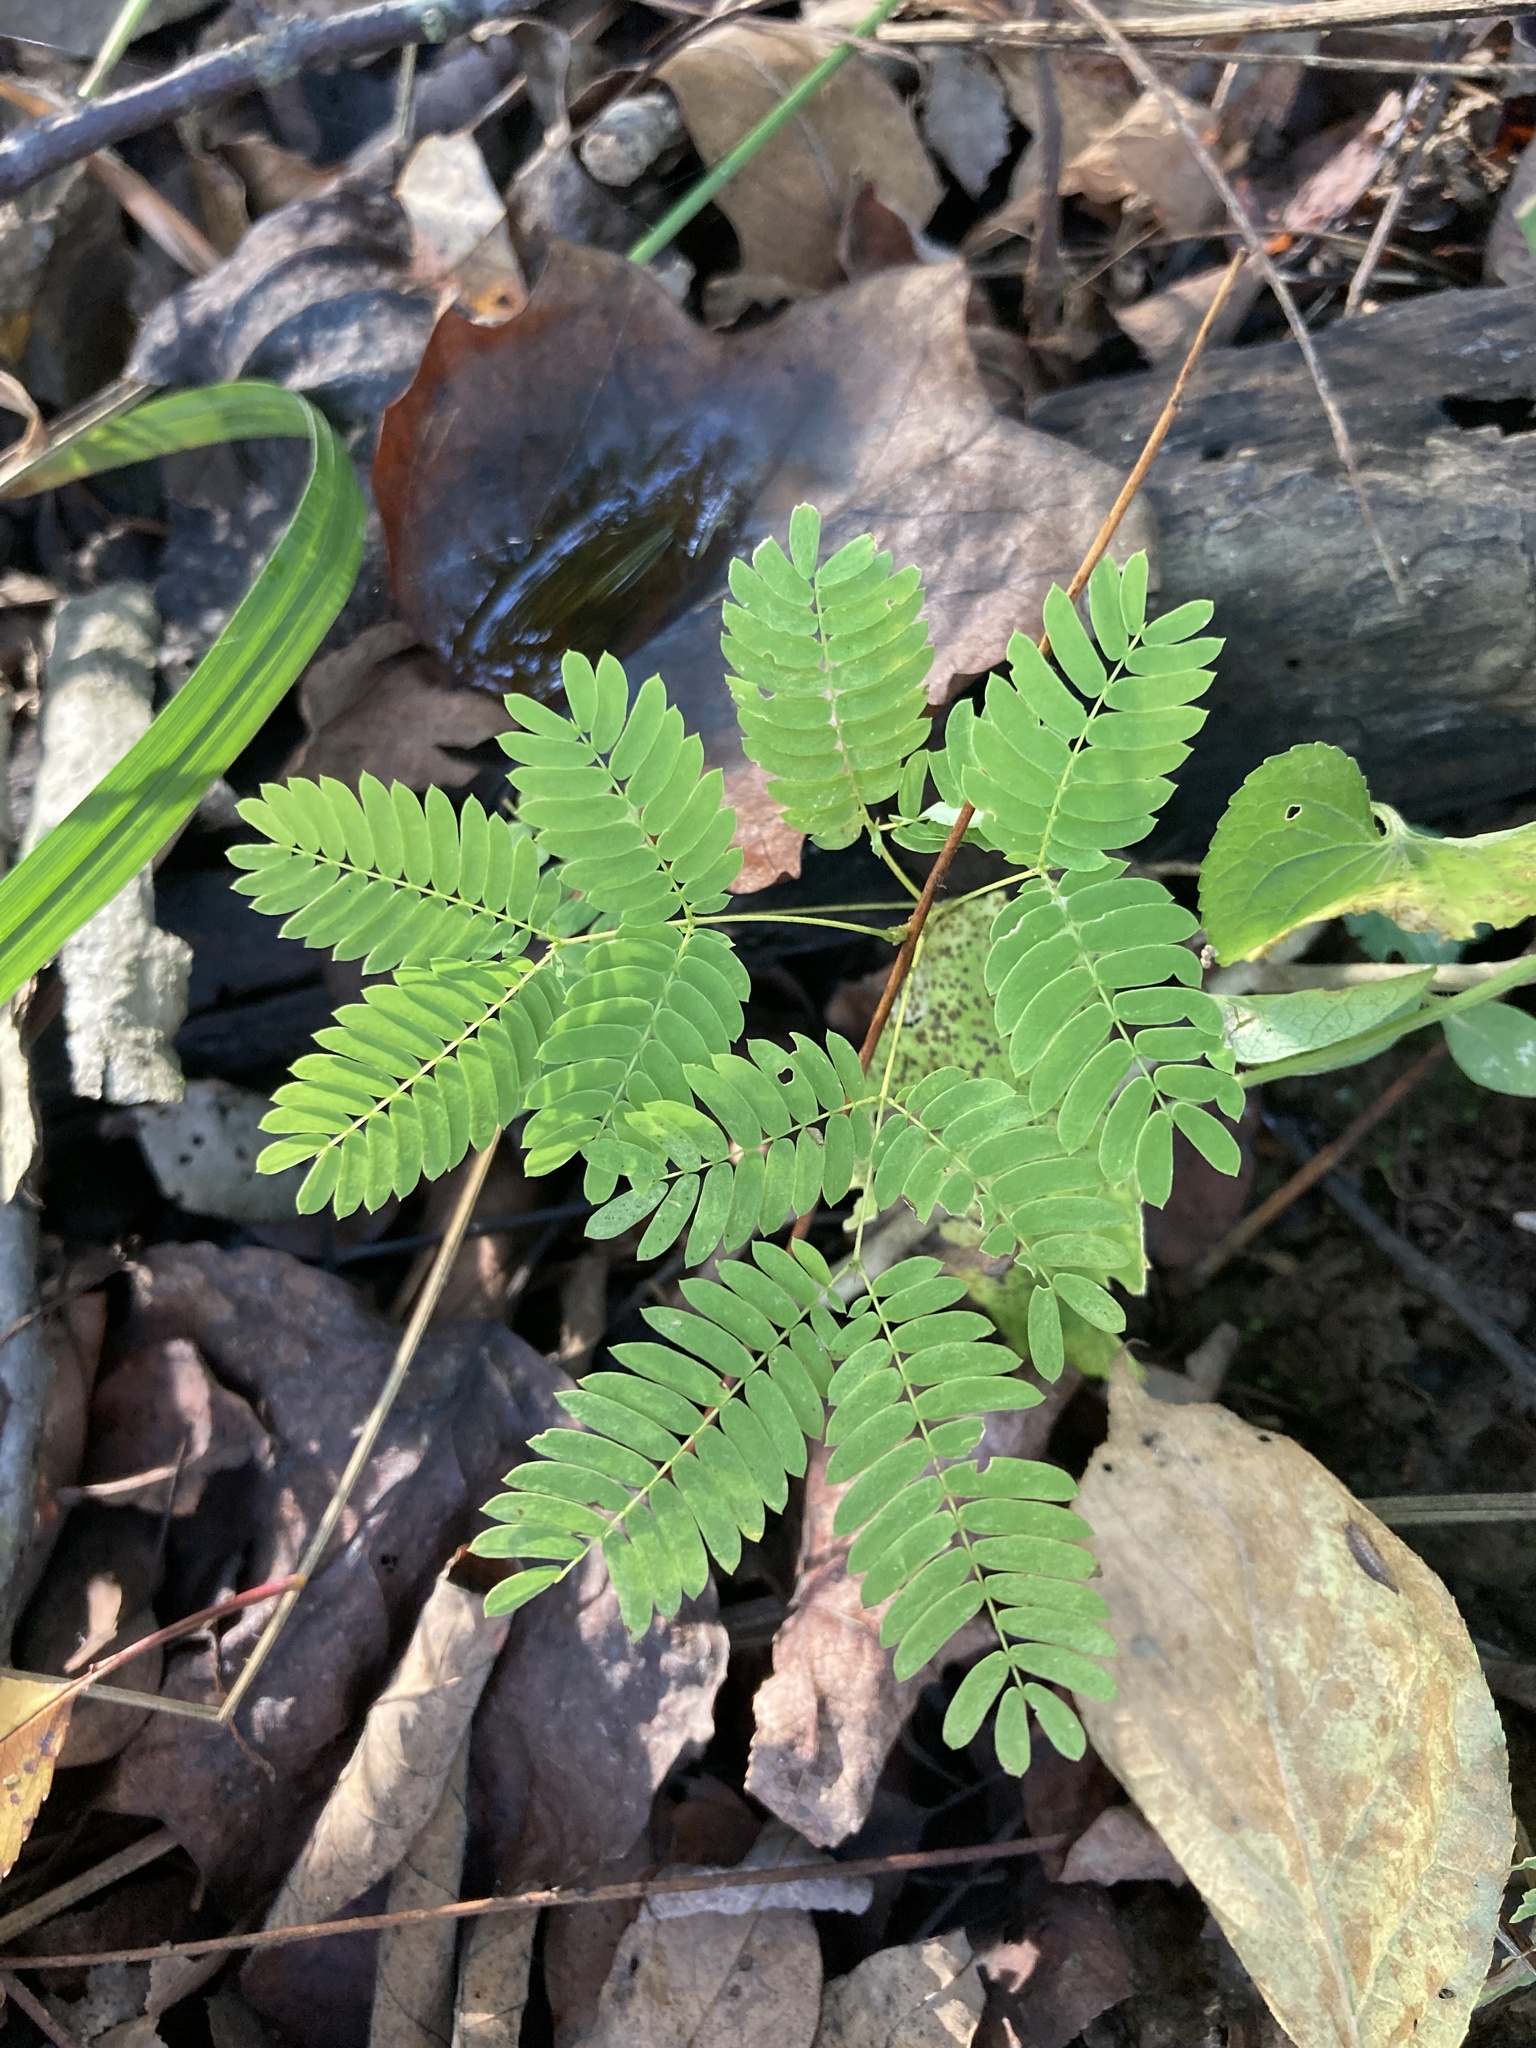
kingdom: Plantae
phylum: Tracheophyta
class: Magnoliopsida
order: Fabales
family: Fabaceae
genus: Albizia
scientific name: Albizia julibrissin
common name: Silktree
